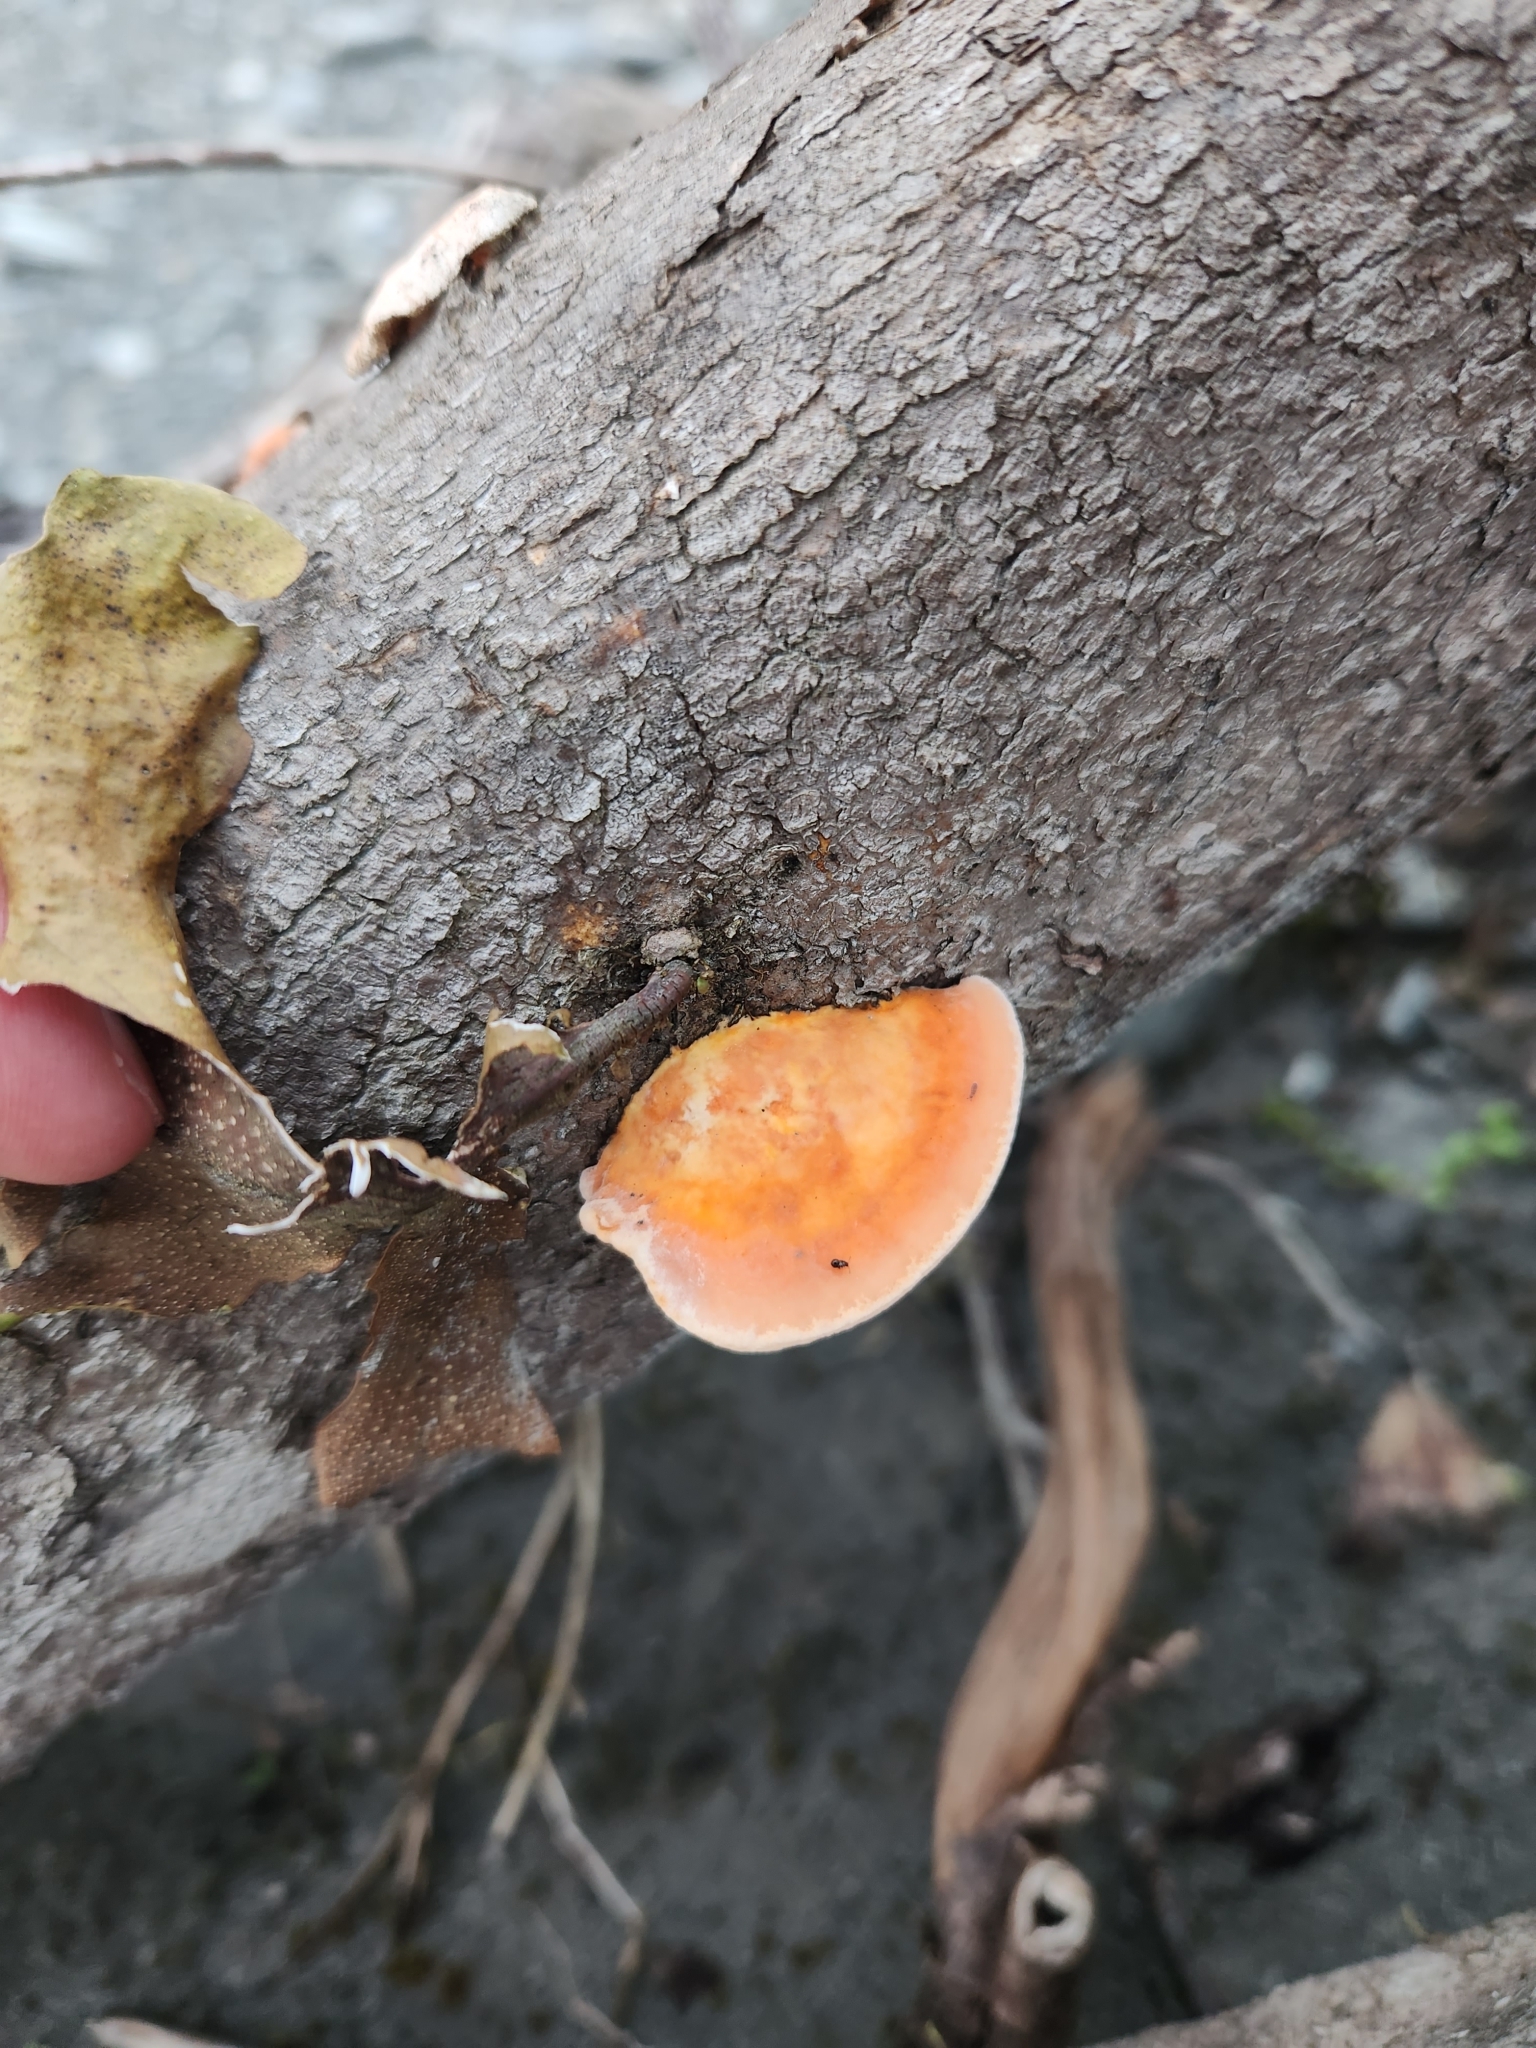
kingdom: Fungi
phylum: Basidiomycota
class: Agaricomycetes
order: Polyporales
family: Polyporaceae
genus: Trametes
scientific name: Trametes coccinea
